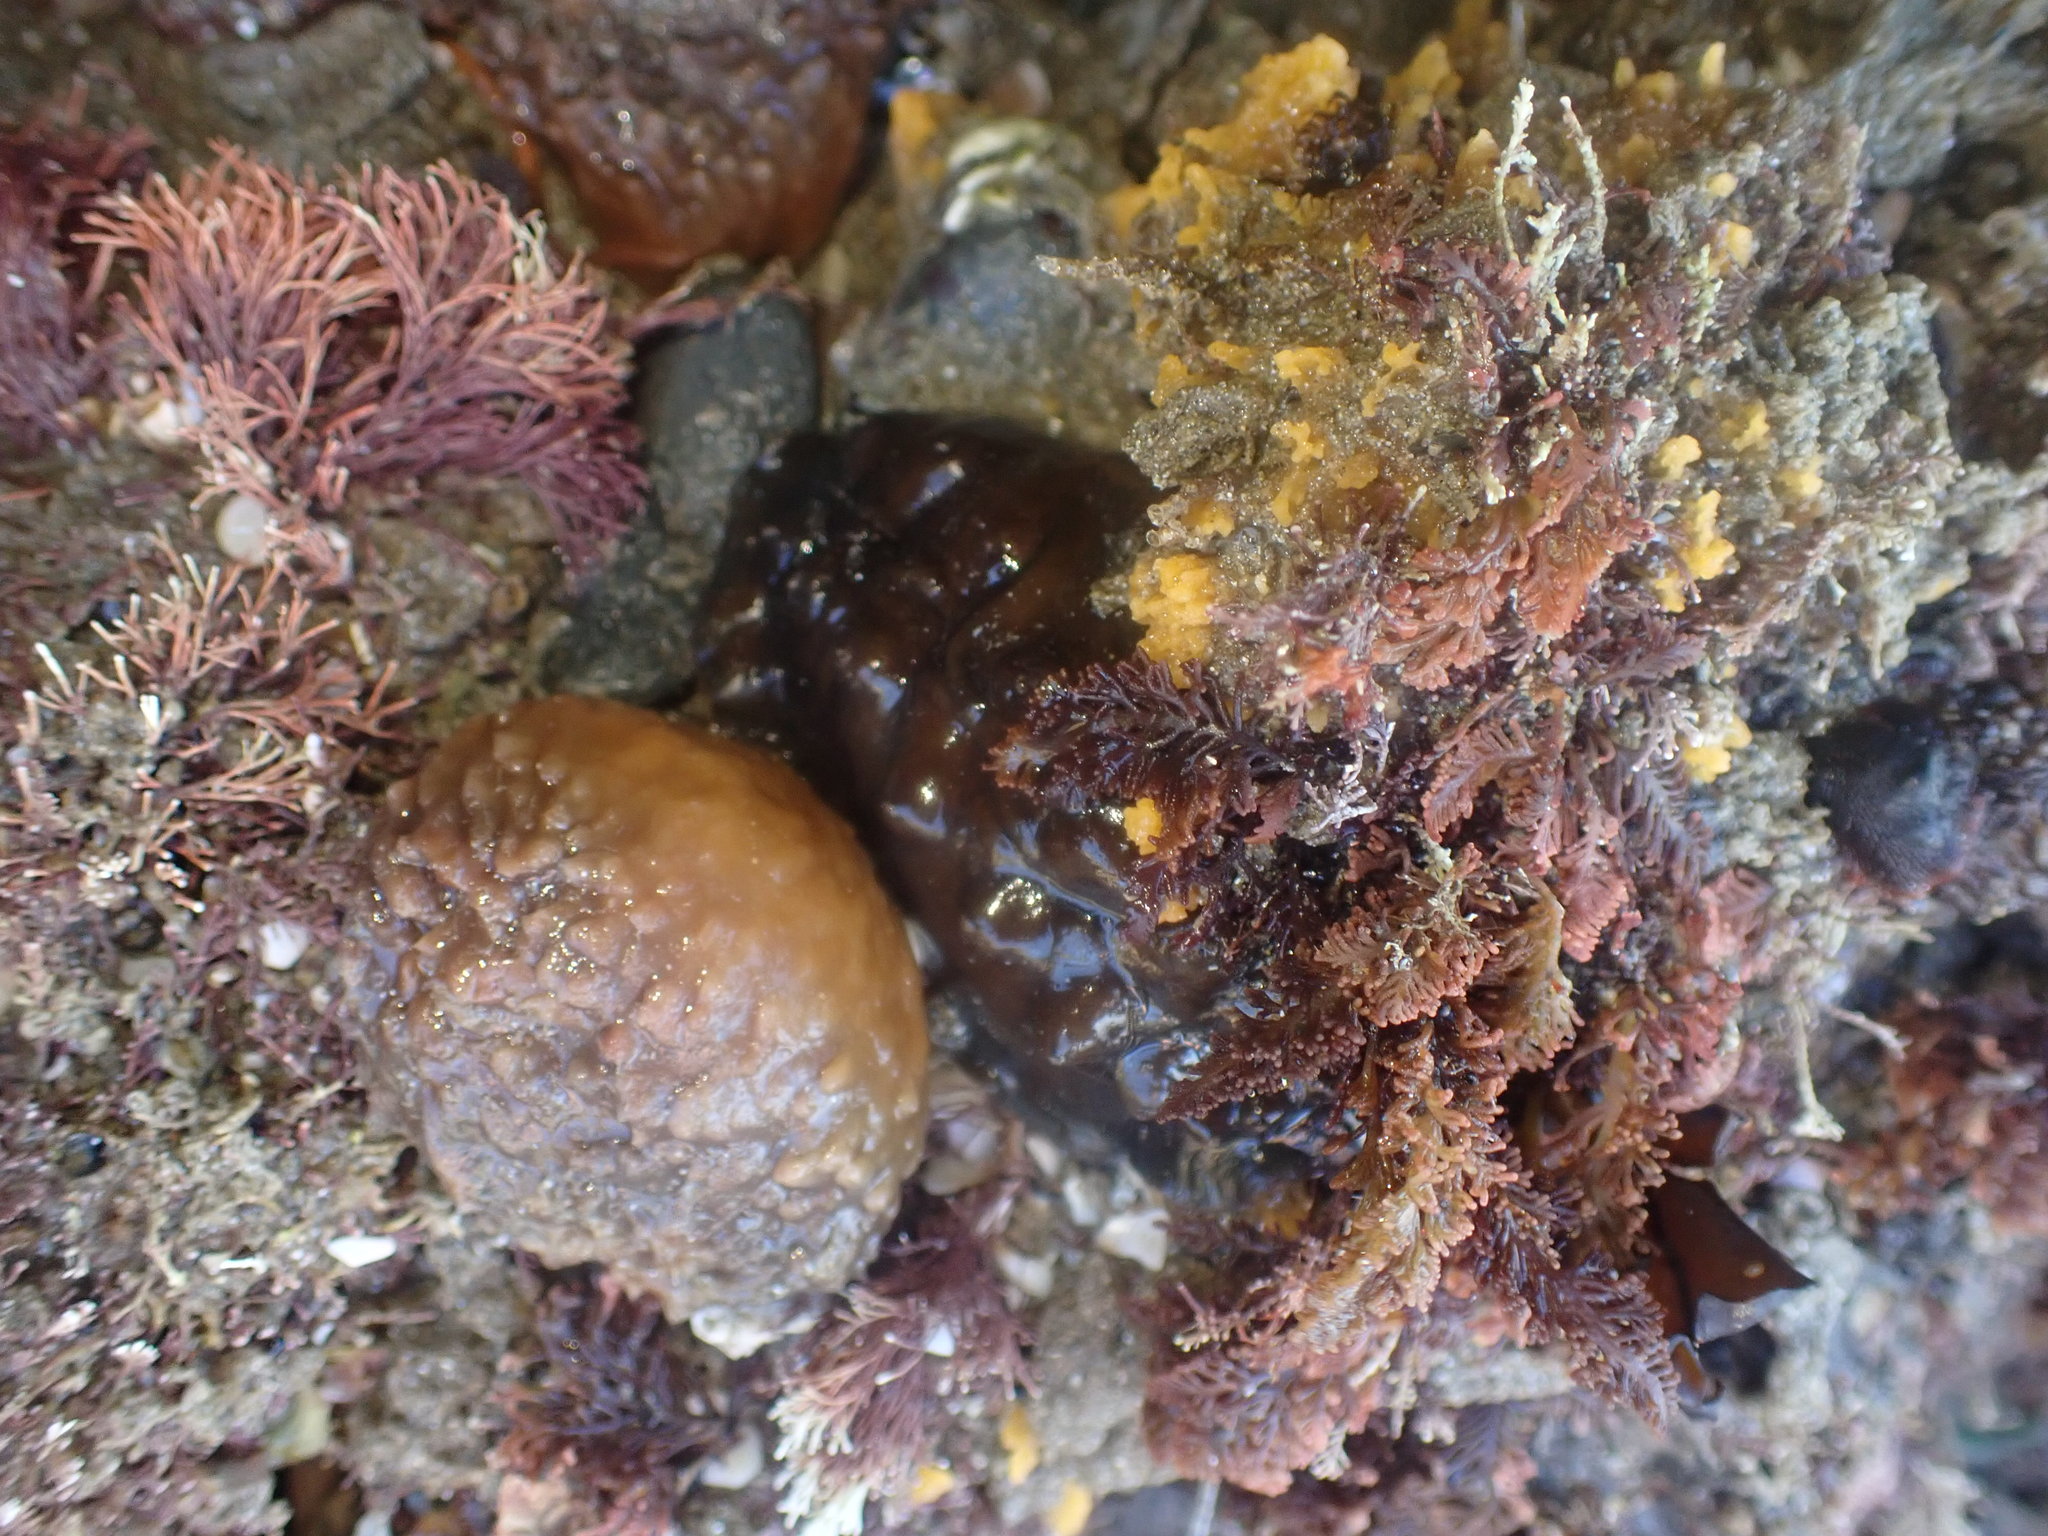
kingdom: Animalia
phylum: Mollusca
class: Polyplacophora
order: Chitonida
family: Acanthochitonidae
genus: Cryptoconchus
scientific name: Cryptoconchus porosus
